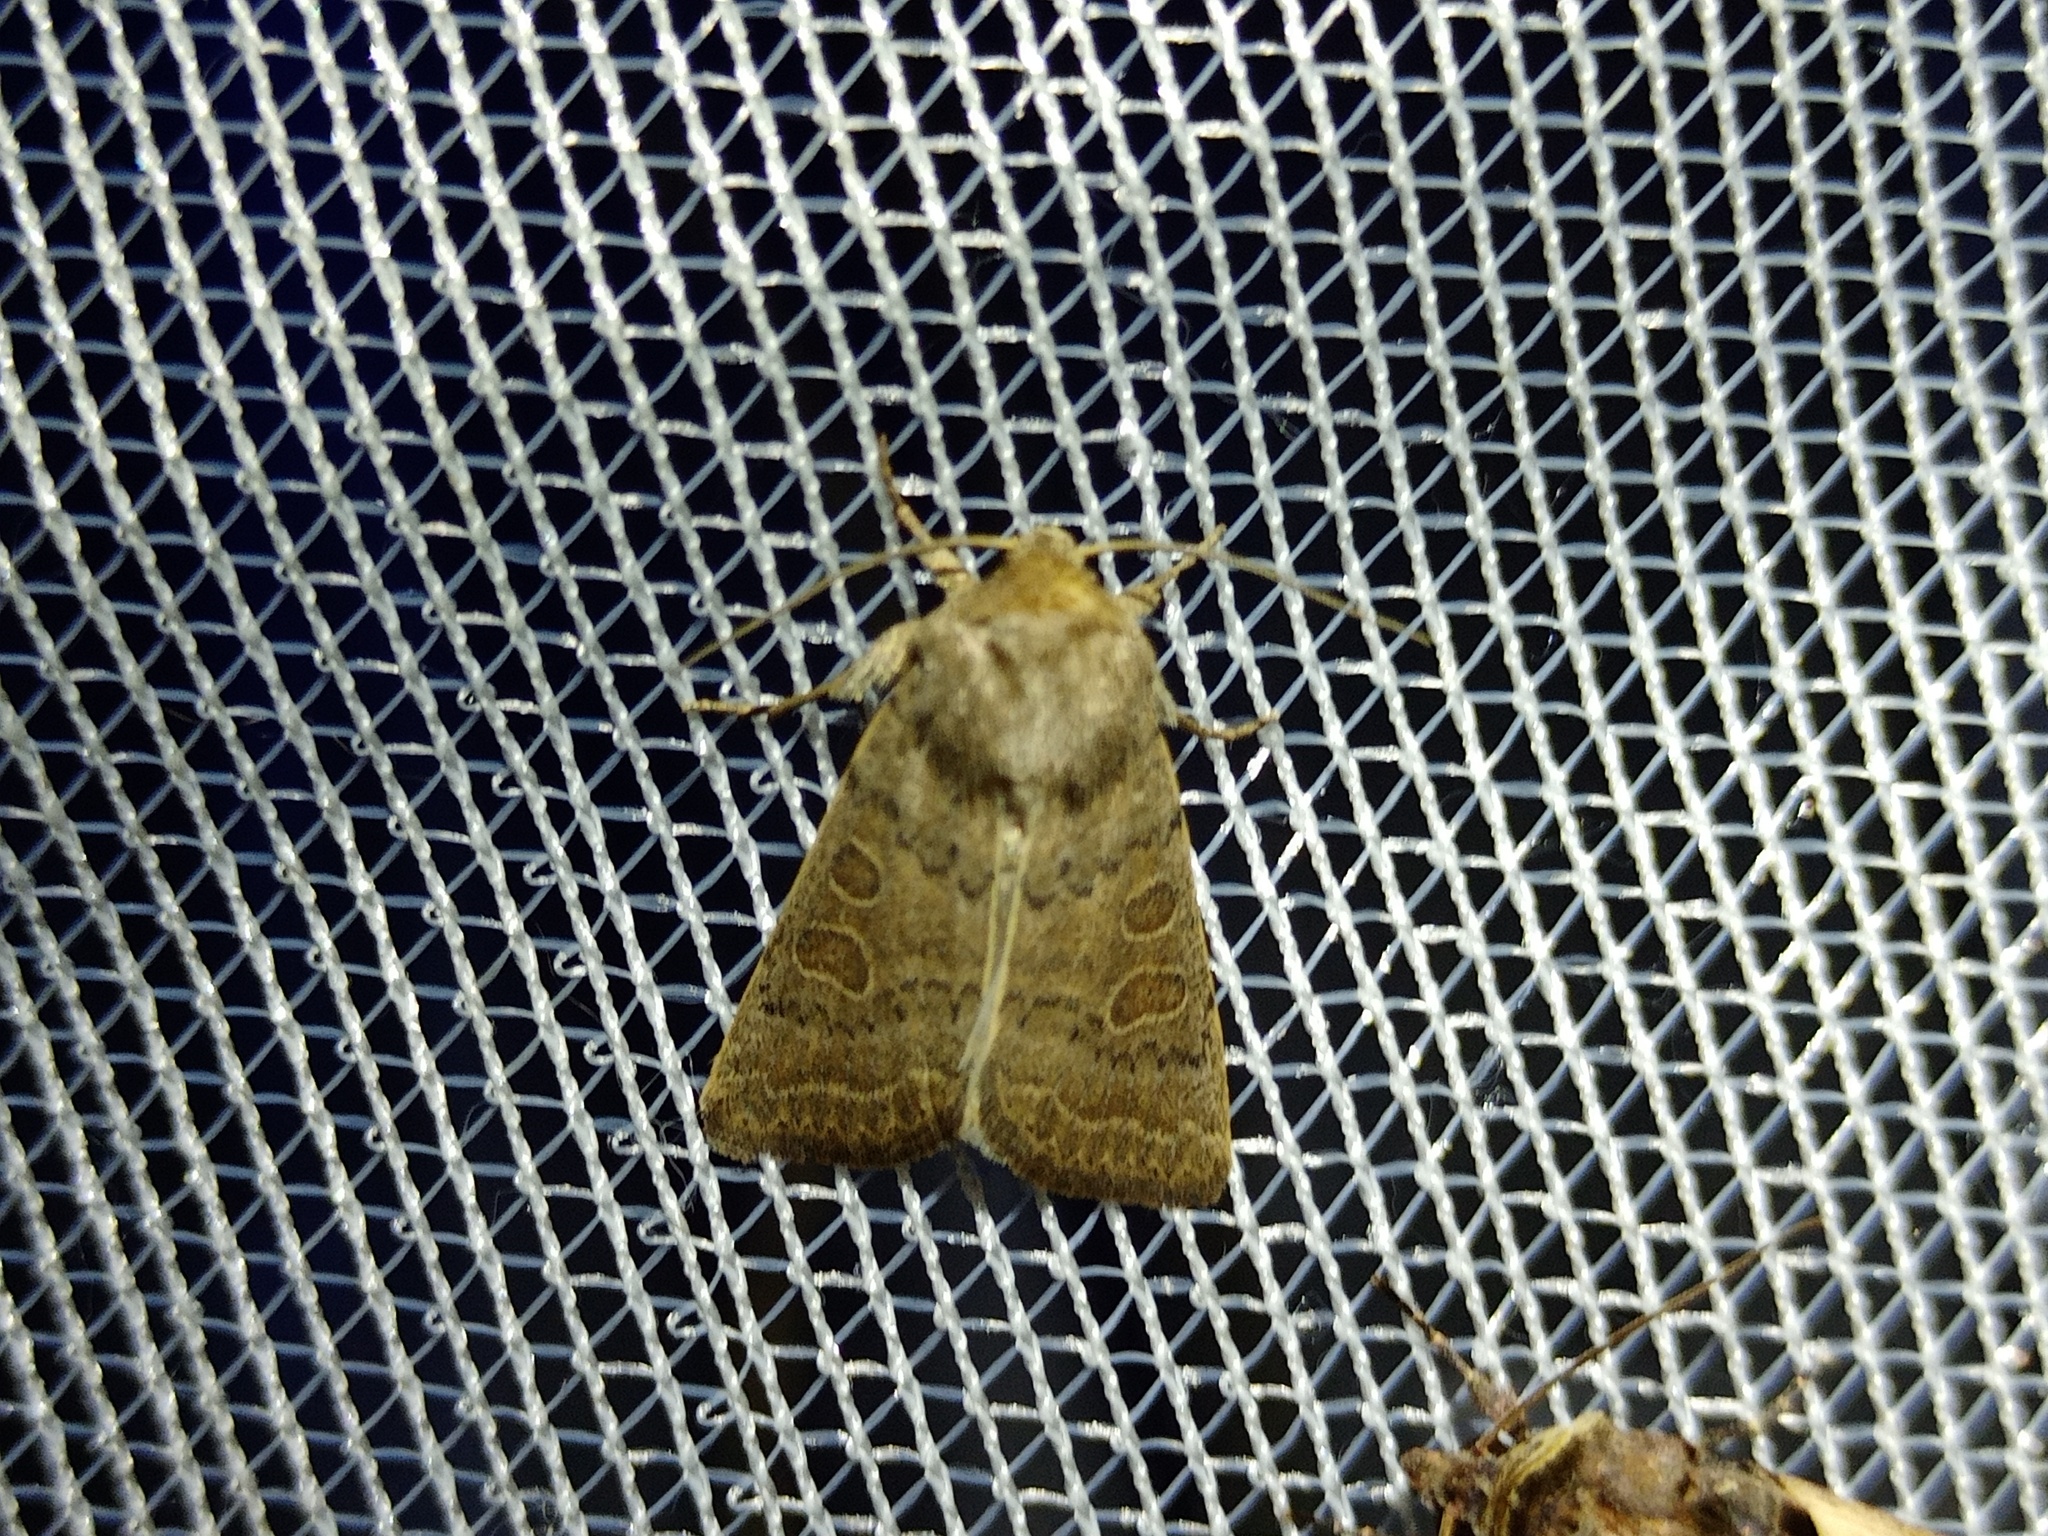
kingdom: Animalia
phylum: Arthropoda
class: Insecta
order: Lepidoptera
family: Noctuidae
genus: Hoplodrina
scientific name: Hoplodrina ambigua
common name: Vine's rustic
